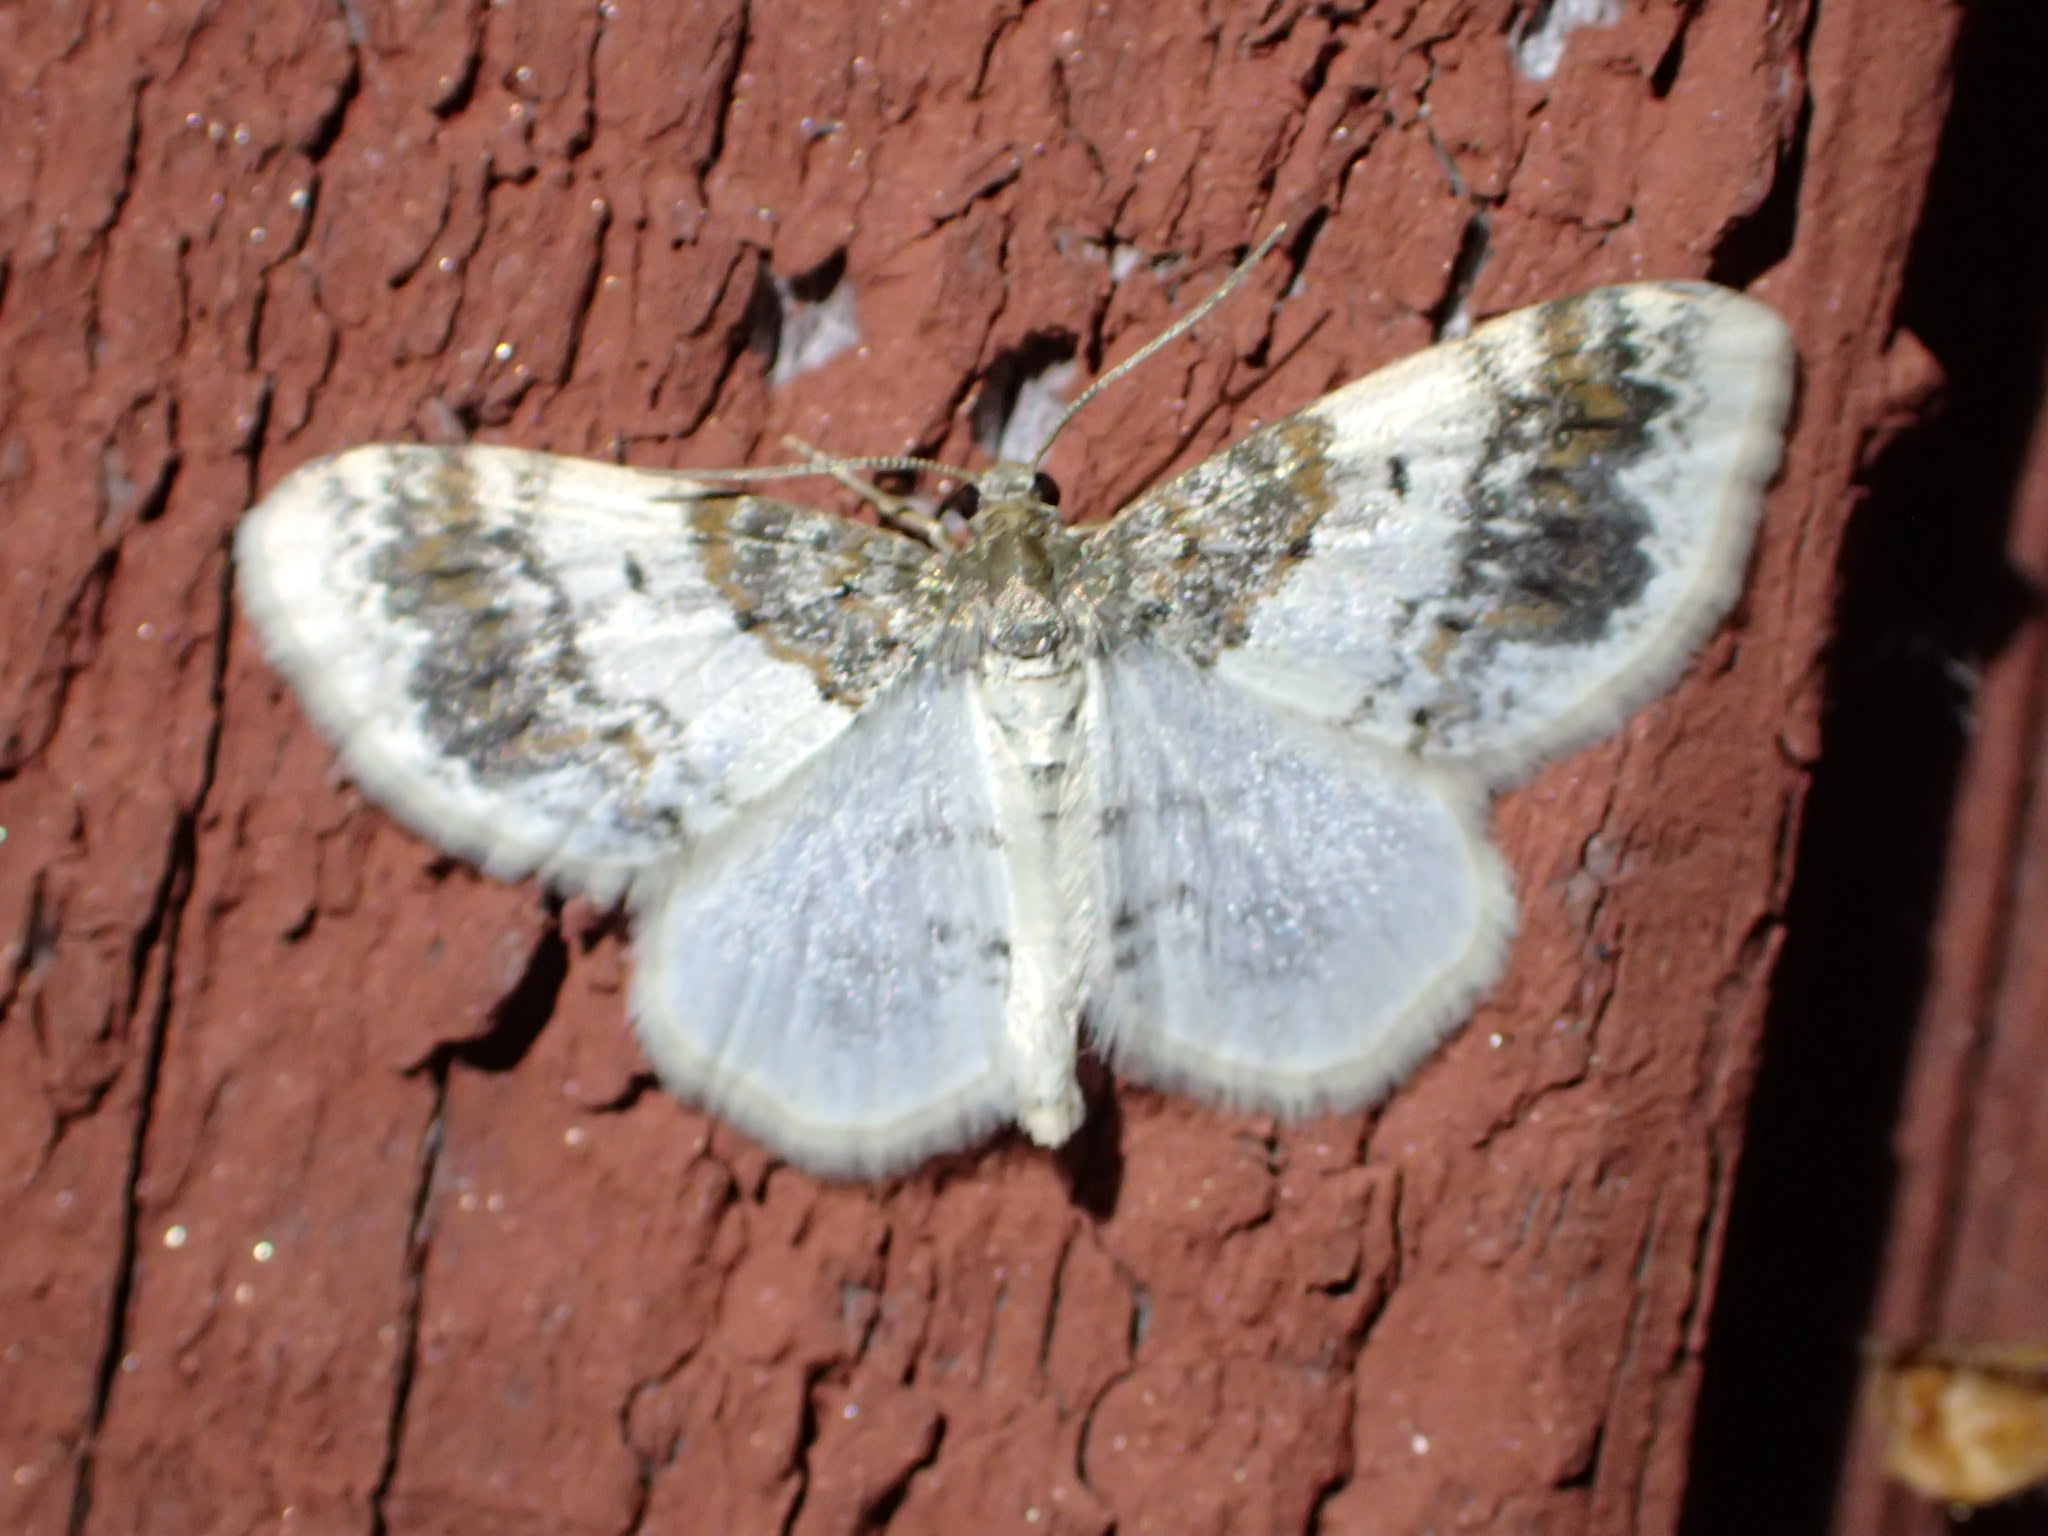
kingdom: Animalia
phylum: Arthropoda
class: Insecta
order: Lepidoptera
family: Geometridae
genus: Hydrelia
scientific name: Hydrelia condensata
